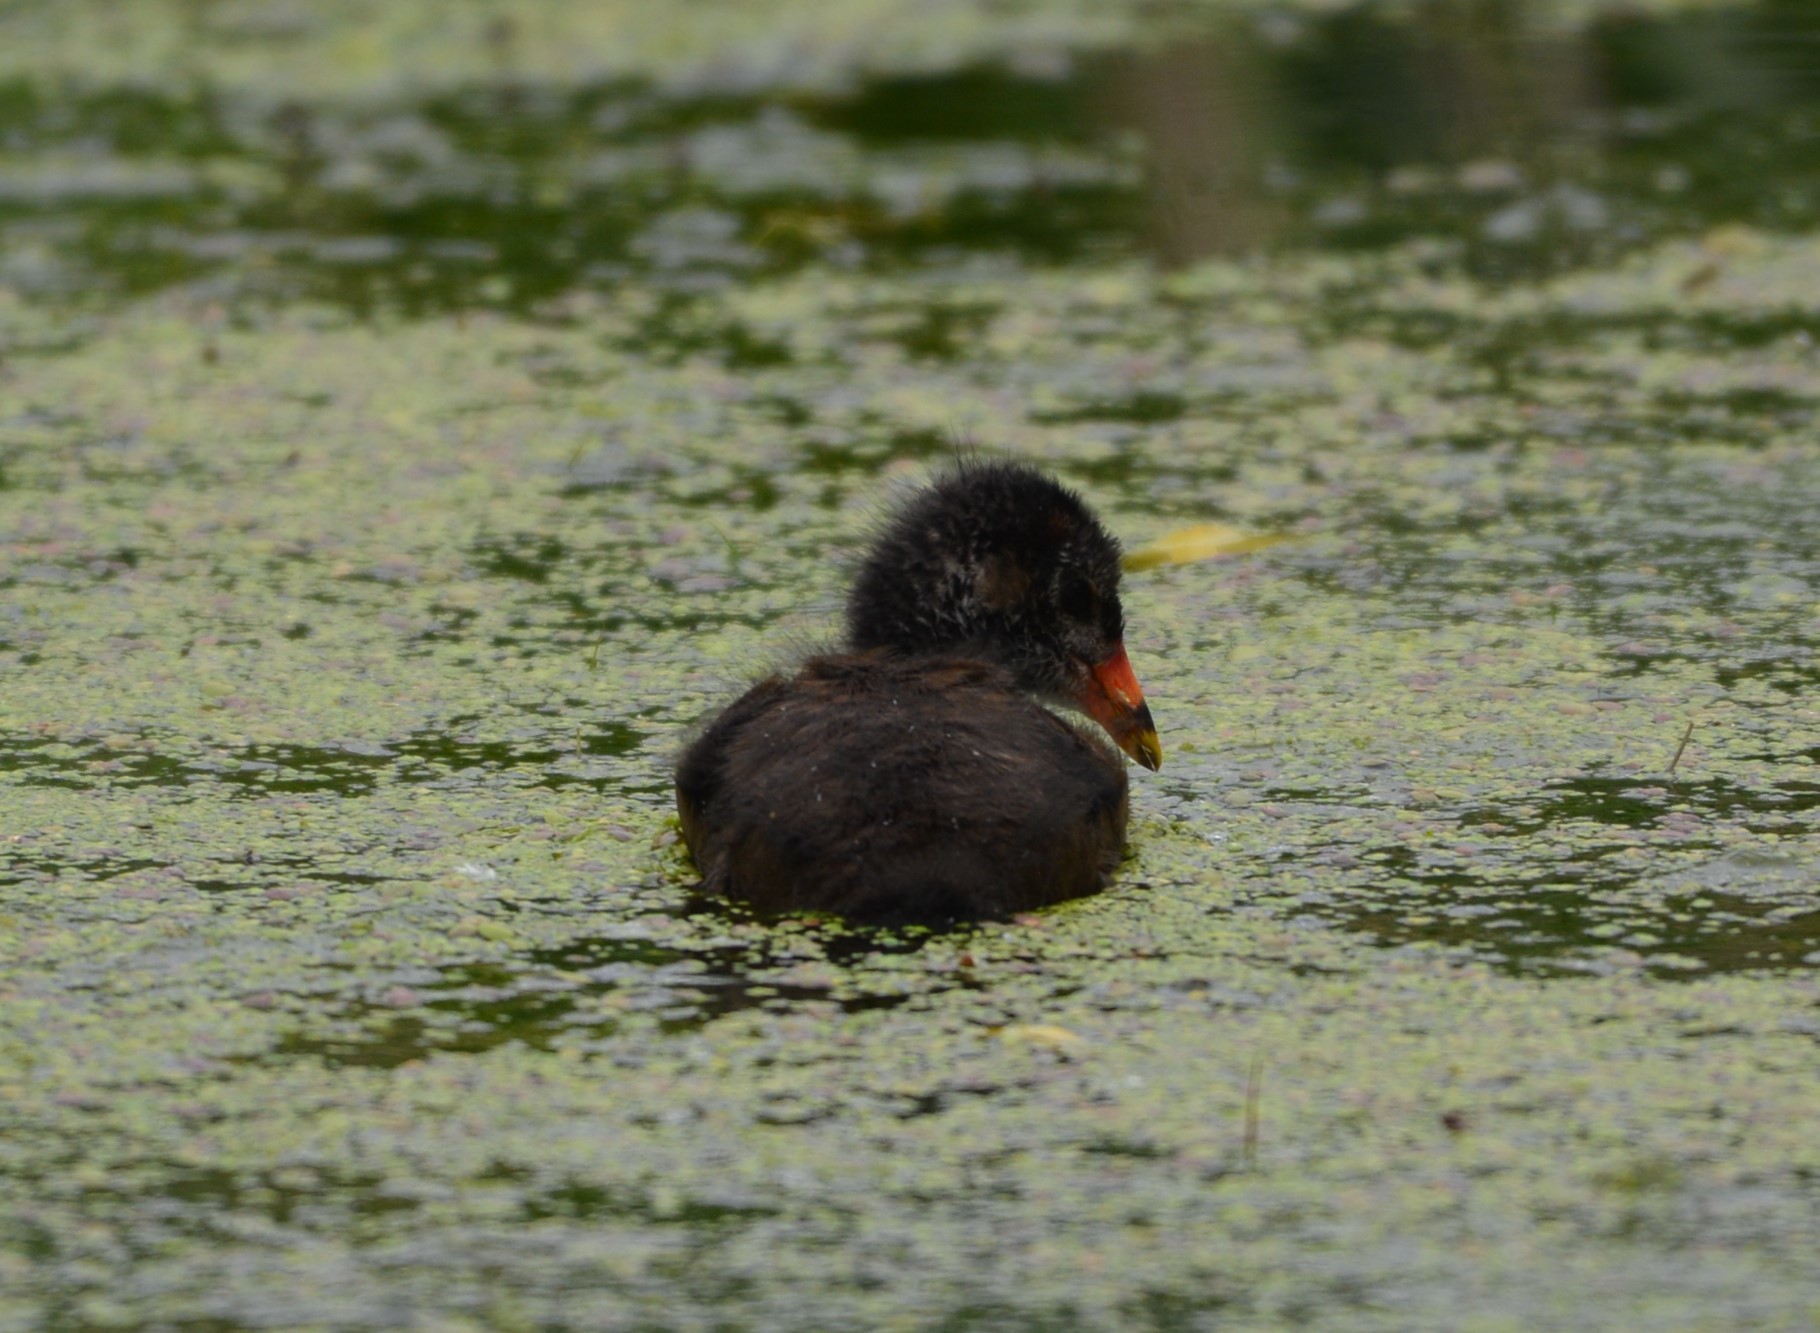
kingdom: Animalia
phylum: Chordata
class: Aves
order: Gruiformes
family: Rallidae
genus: Gallinula
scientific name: Gallinula chloropus
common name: Common moorhen
